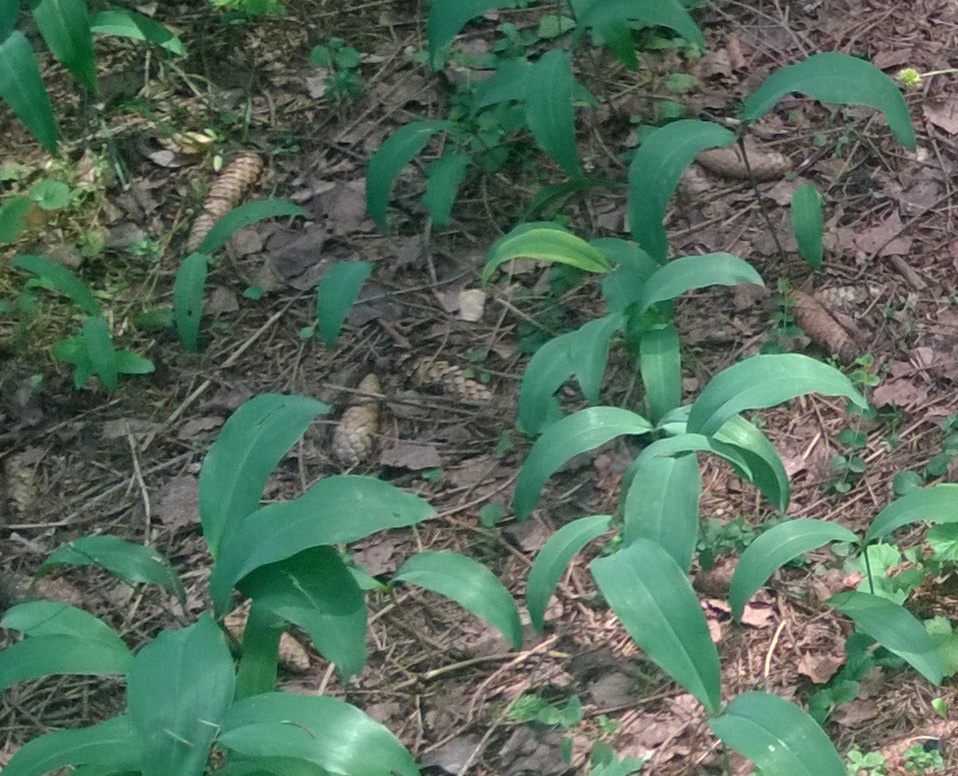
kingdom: Plantae
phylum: Tracheophyta
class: Liliopsida
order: Asparagales
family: Asparagaceae
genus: Convallaria
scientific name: Convallaria majalis
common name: Lily-of-the-valley
